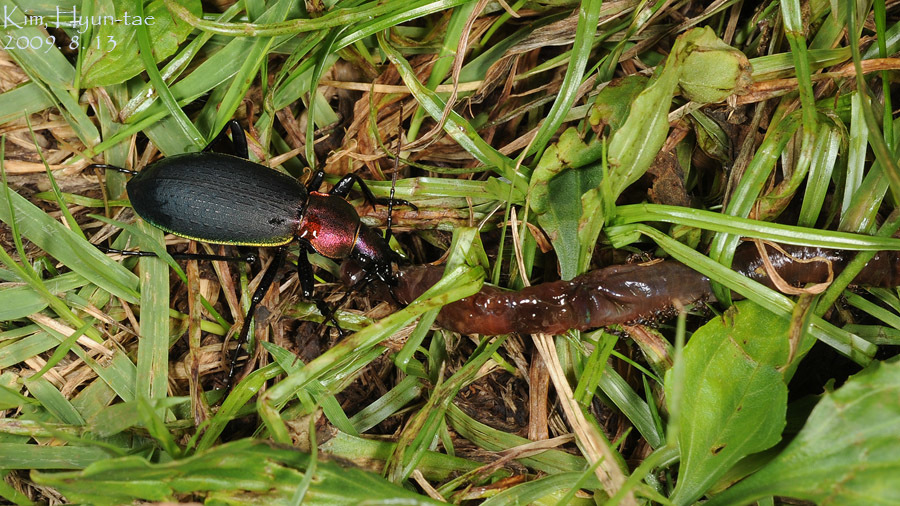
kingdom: Animalia
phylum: Arthropoda
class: Insecta
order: Coleoptera
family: Carabidae
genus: Carabus
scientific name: Carabus jankowskii
